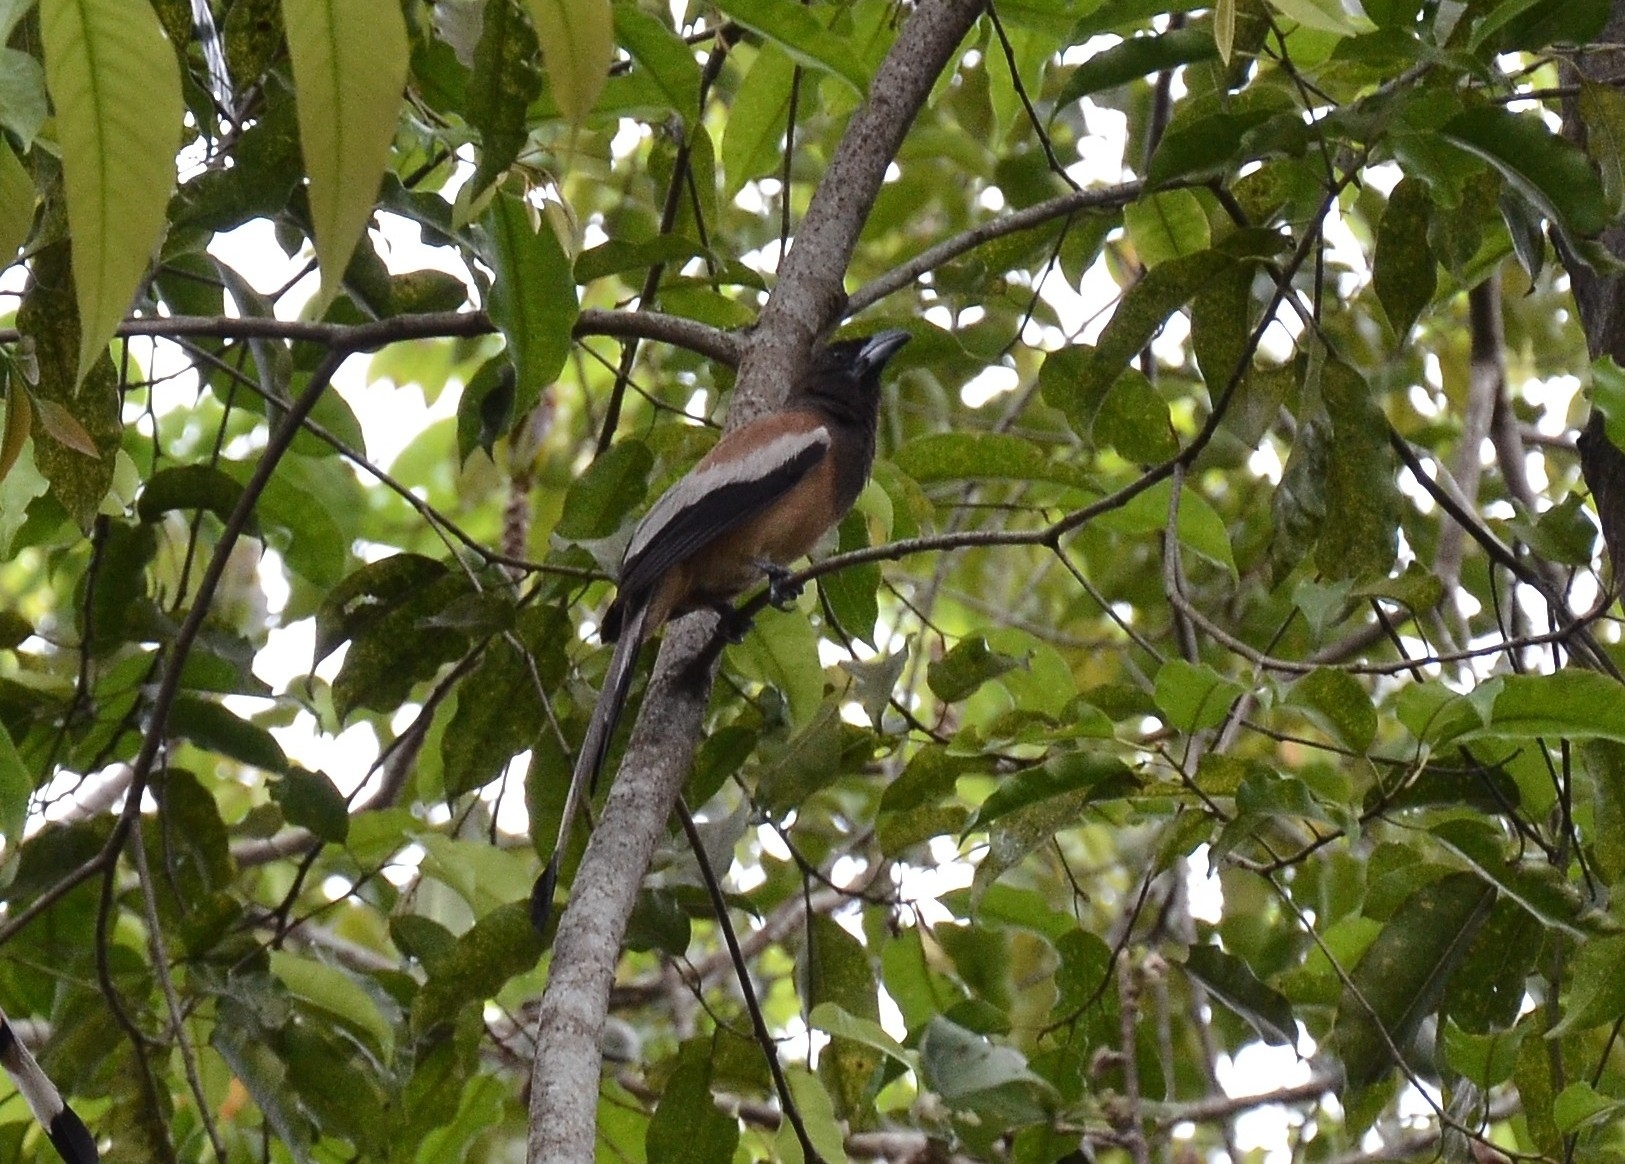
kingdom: Animalia
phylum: Chordata
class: Aves
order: Passeriformes
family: Corvidae
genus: Dendrocitta
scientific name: Dendrocitta vagabunda
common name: Rufous treepie
